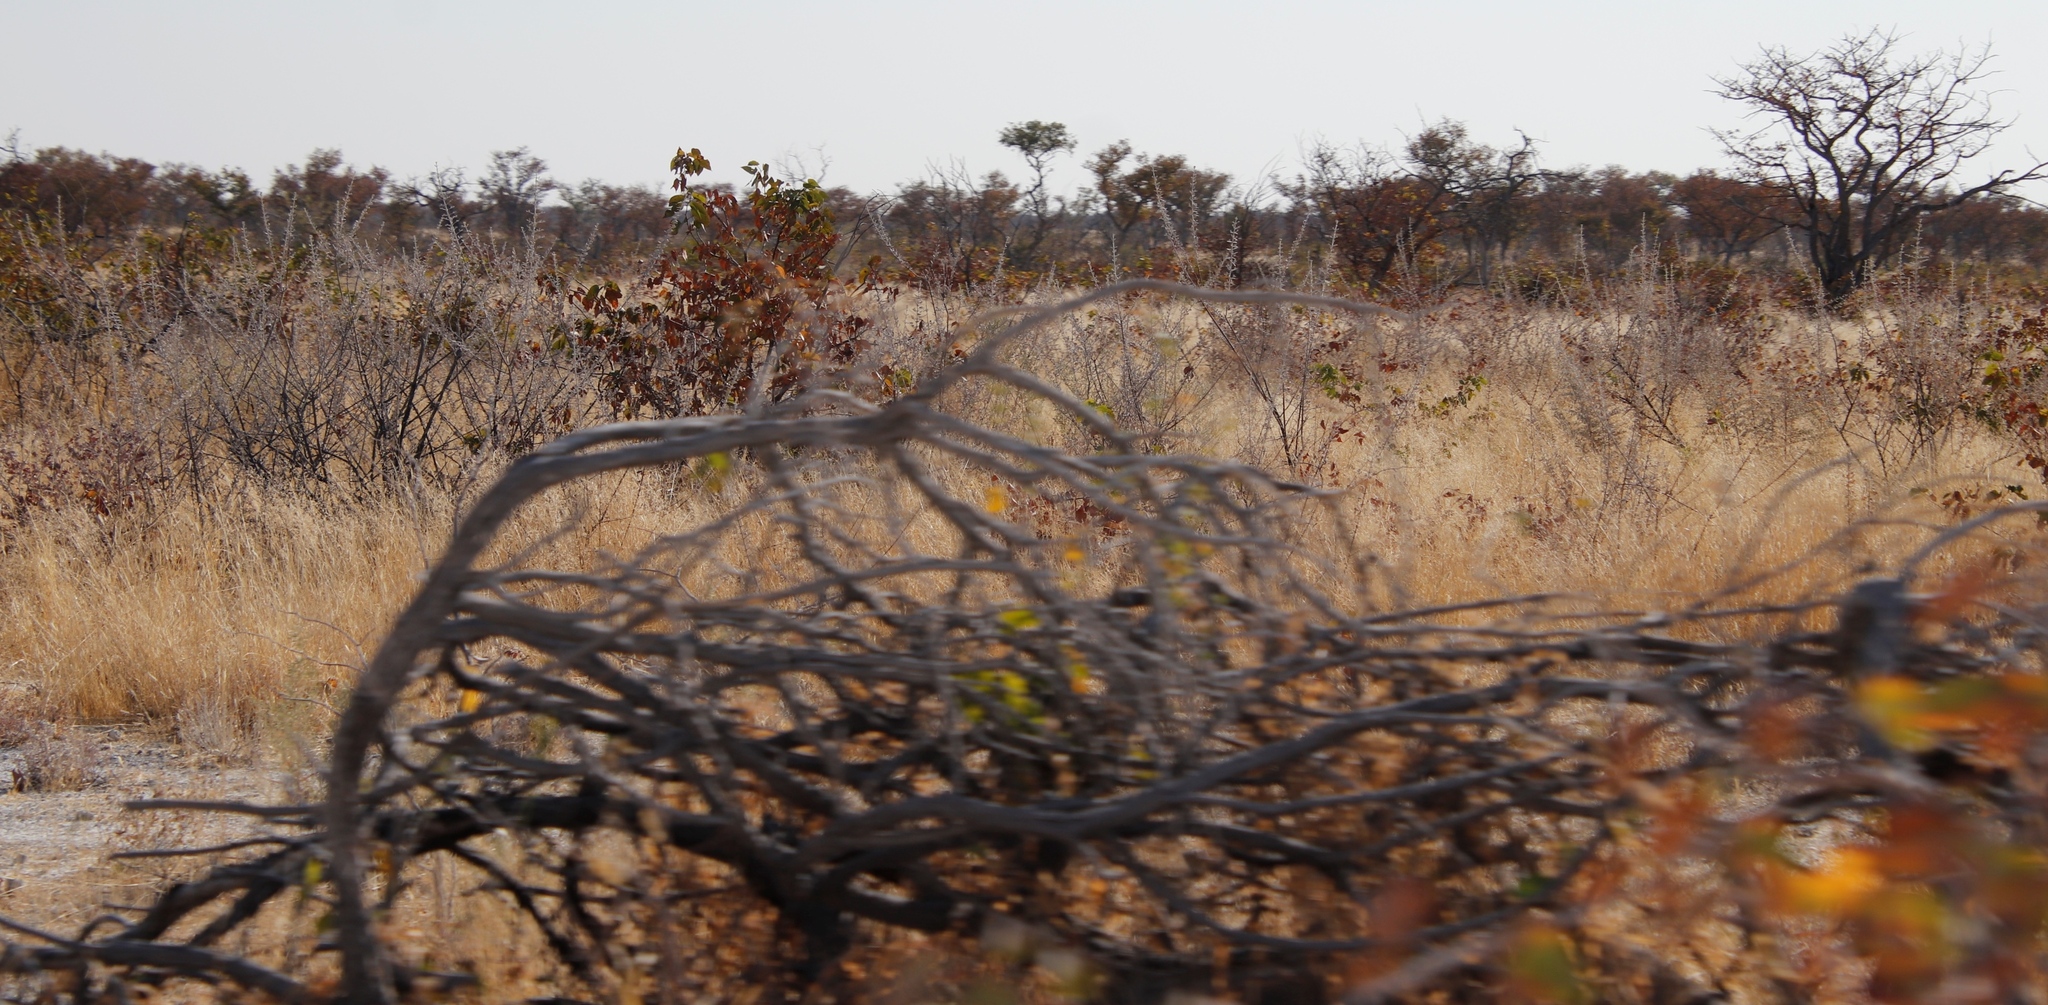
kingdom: Plantae
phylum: Tracheophyta
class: Magnoliopsida
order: Fabales
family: Fabaceae
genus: Colophospermum
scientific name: Colophospermum mopane
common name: Mopane
